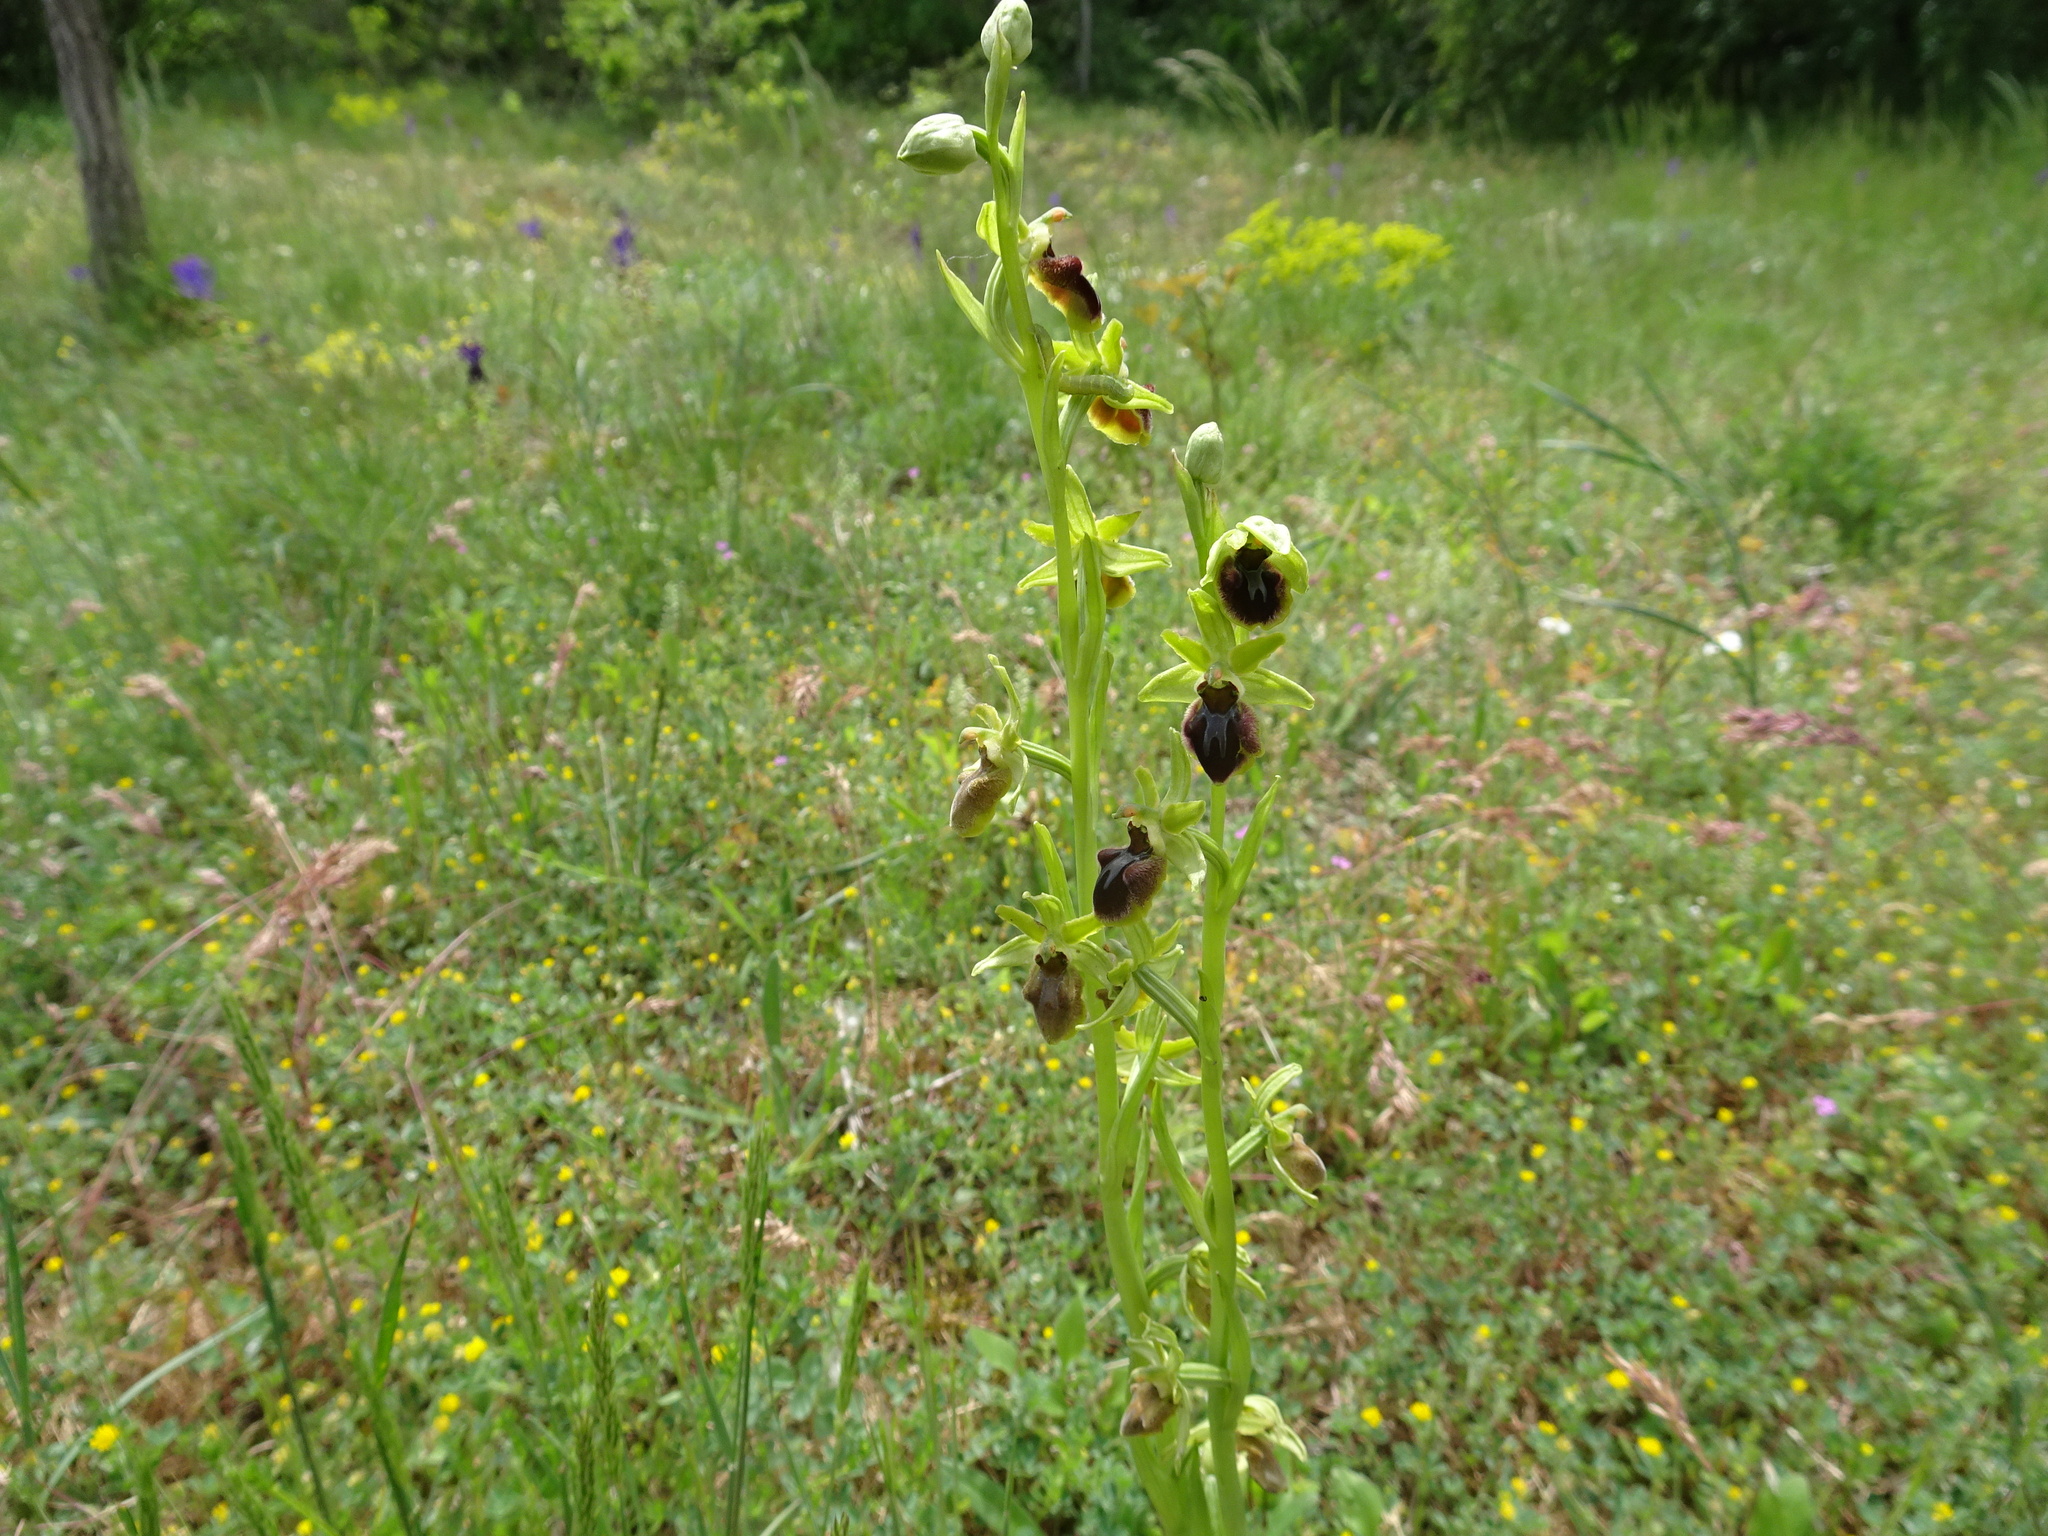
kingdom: Plantae
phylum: Tracheophyta
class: Liliopsida
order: Asparagales
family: Orchidaceae
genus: Ophrys
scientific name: Ophrys sphegodes
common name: Early spider-orchid
